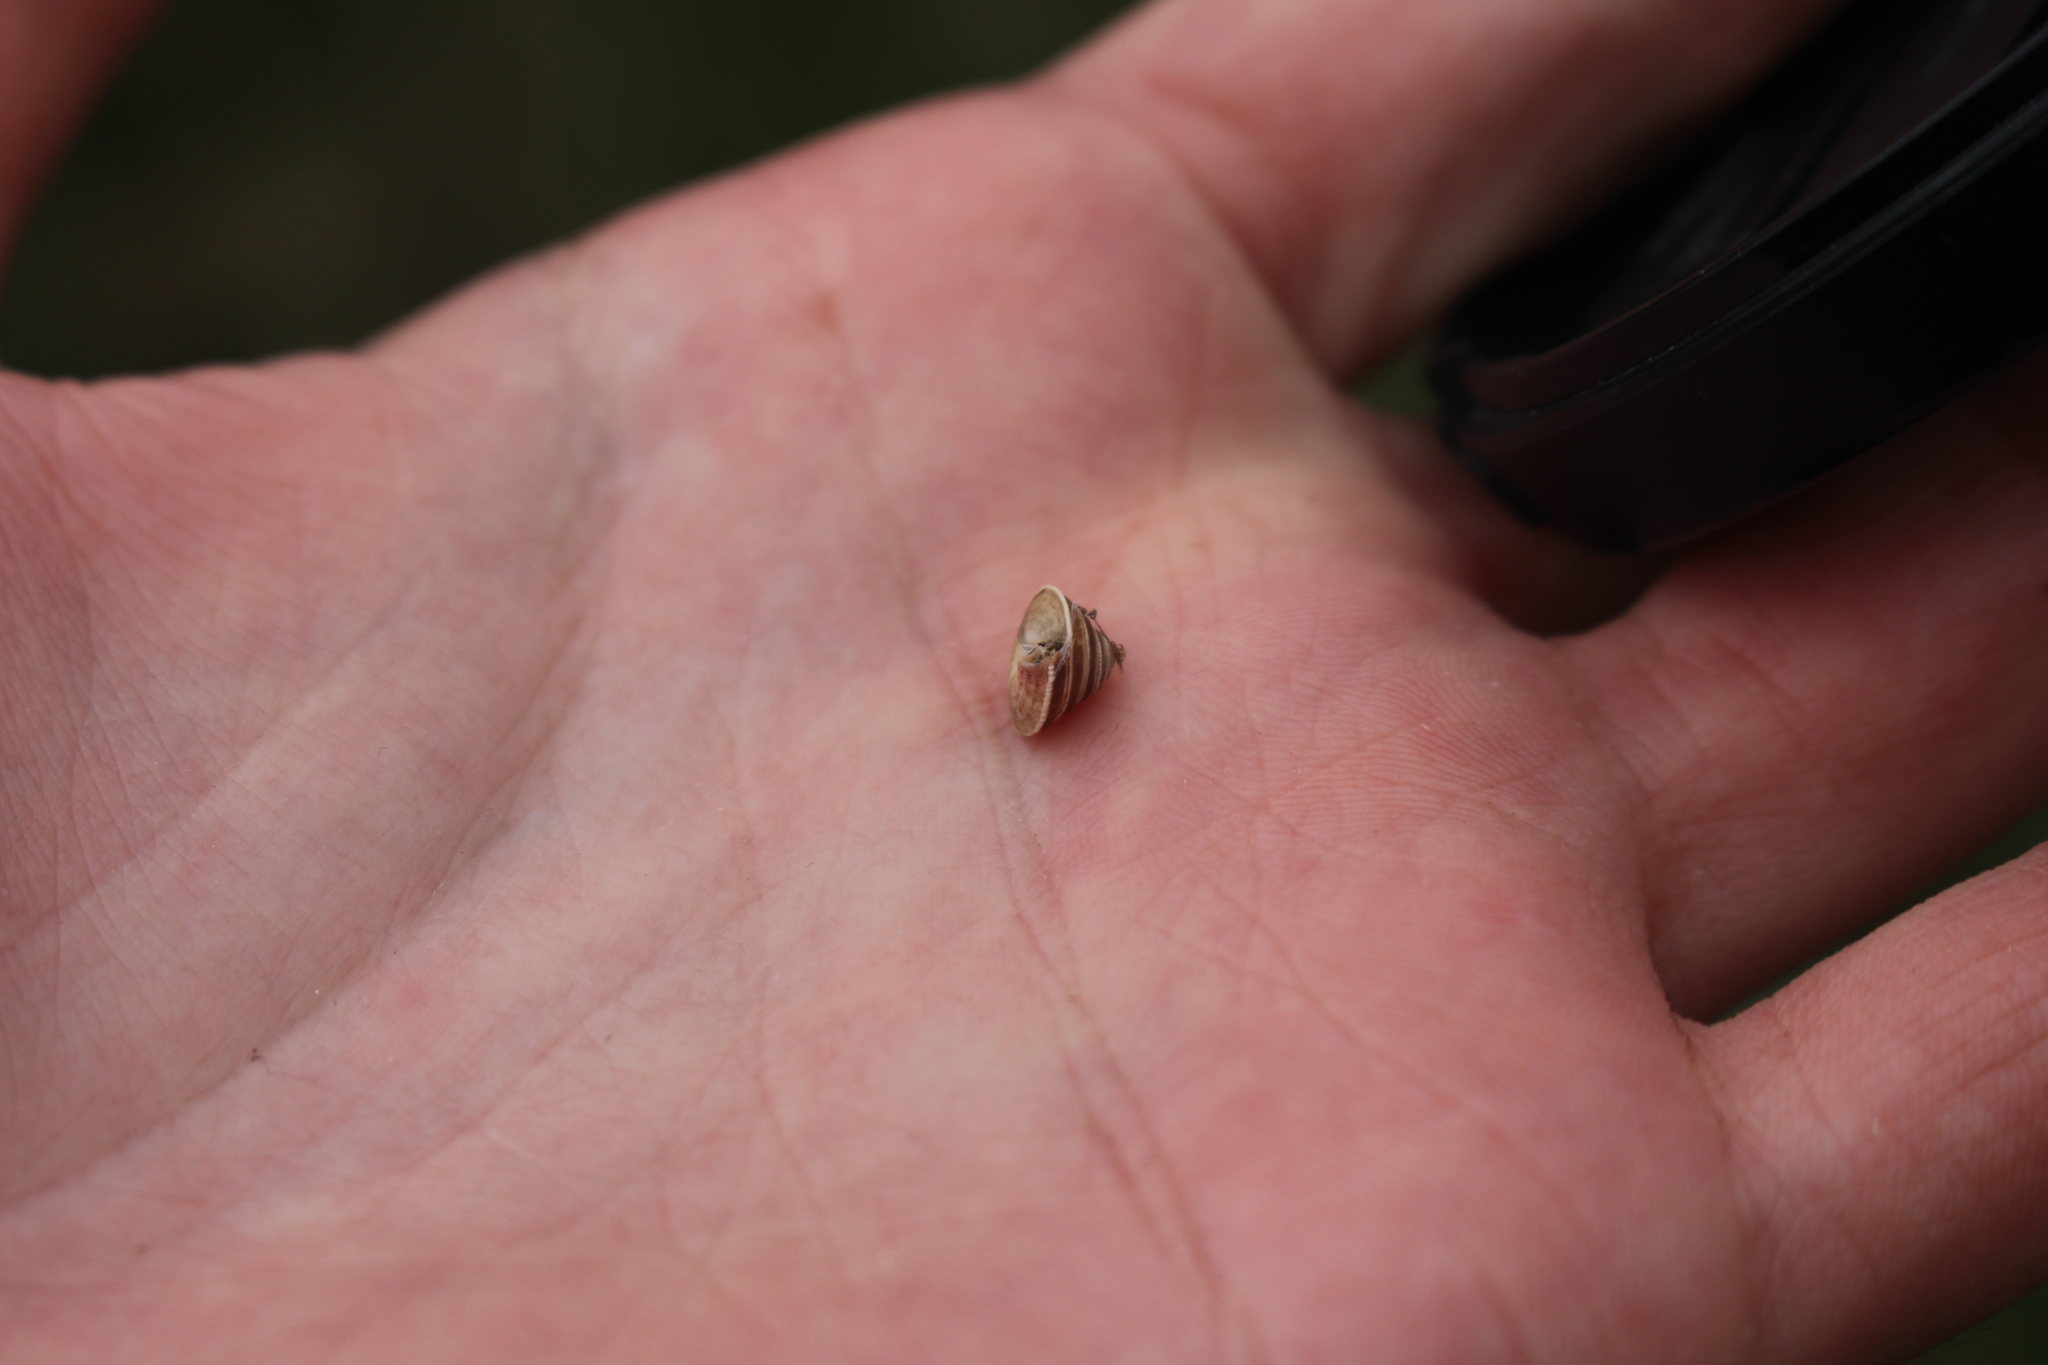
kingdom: Animalia
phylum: Mollusca
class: Gastropoda
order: Stylommatophora
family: Geomitridae
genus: Trochoidea
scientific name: Trochoidea elegans
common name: Elegant helicellid
